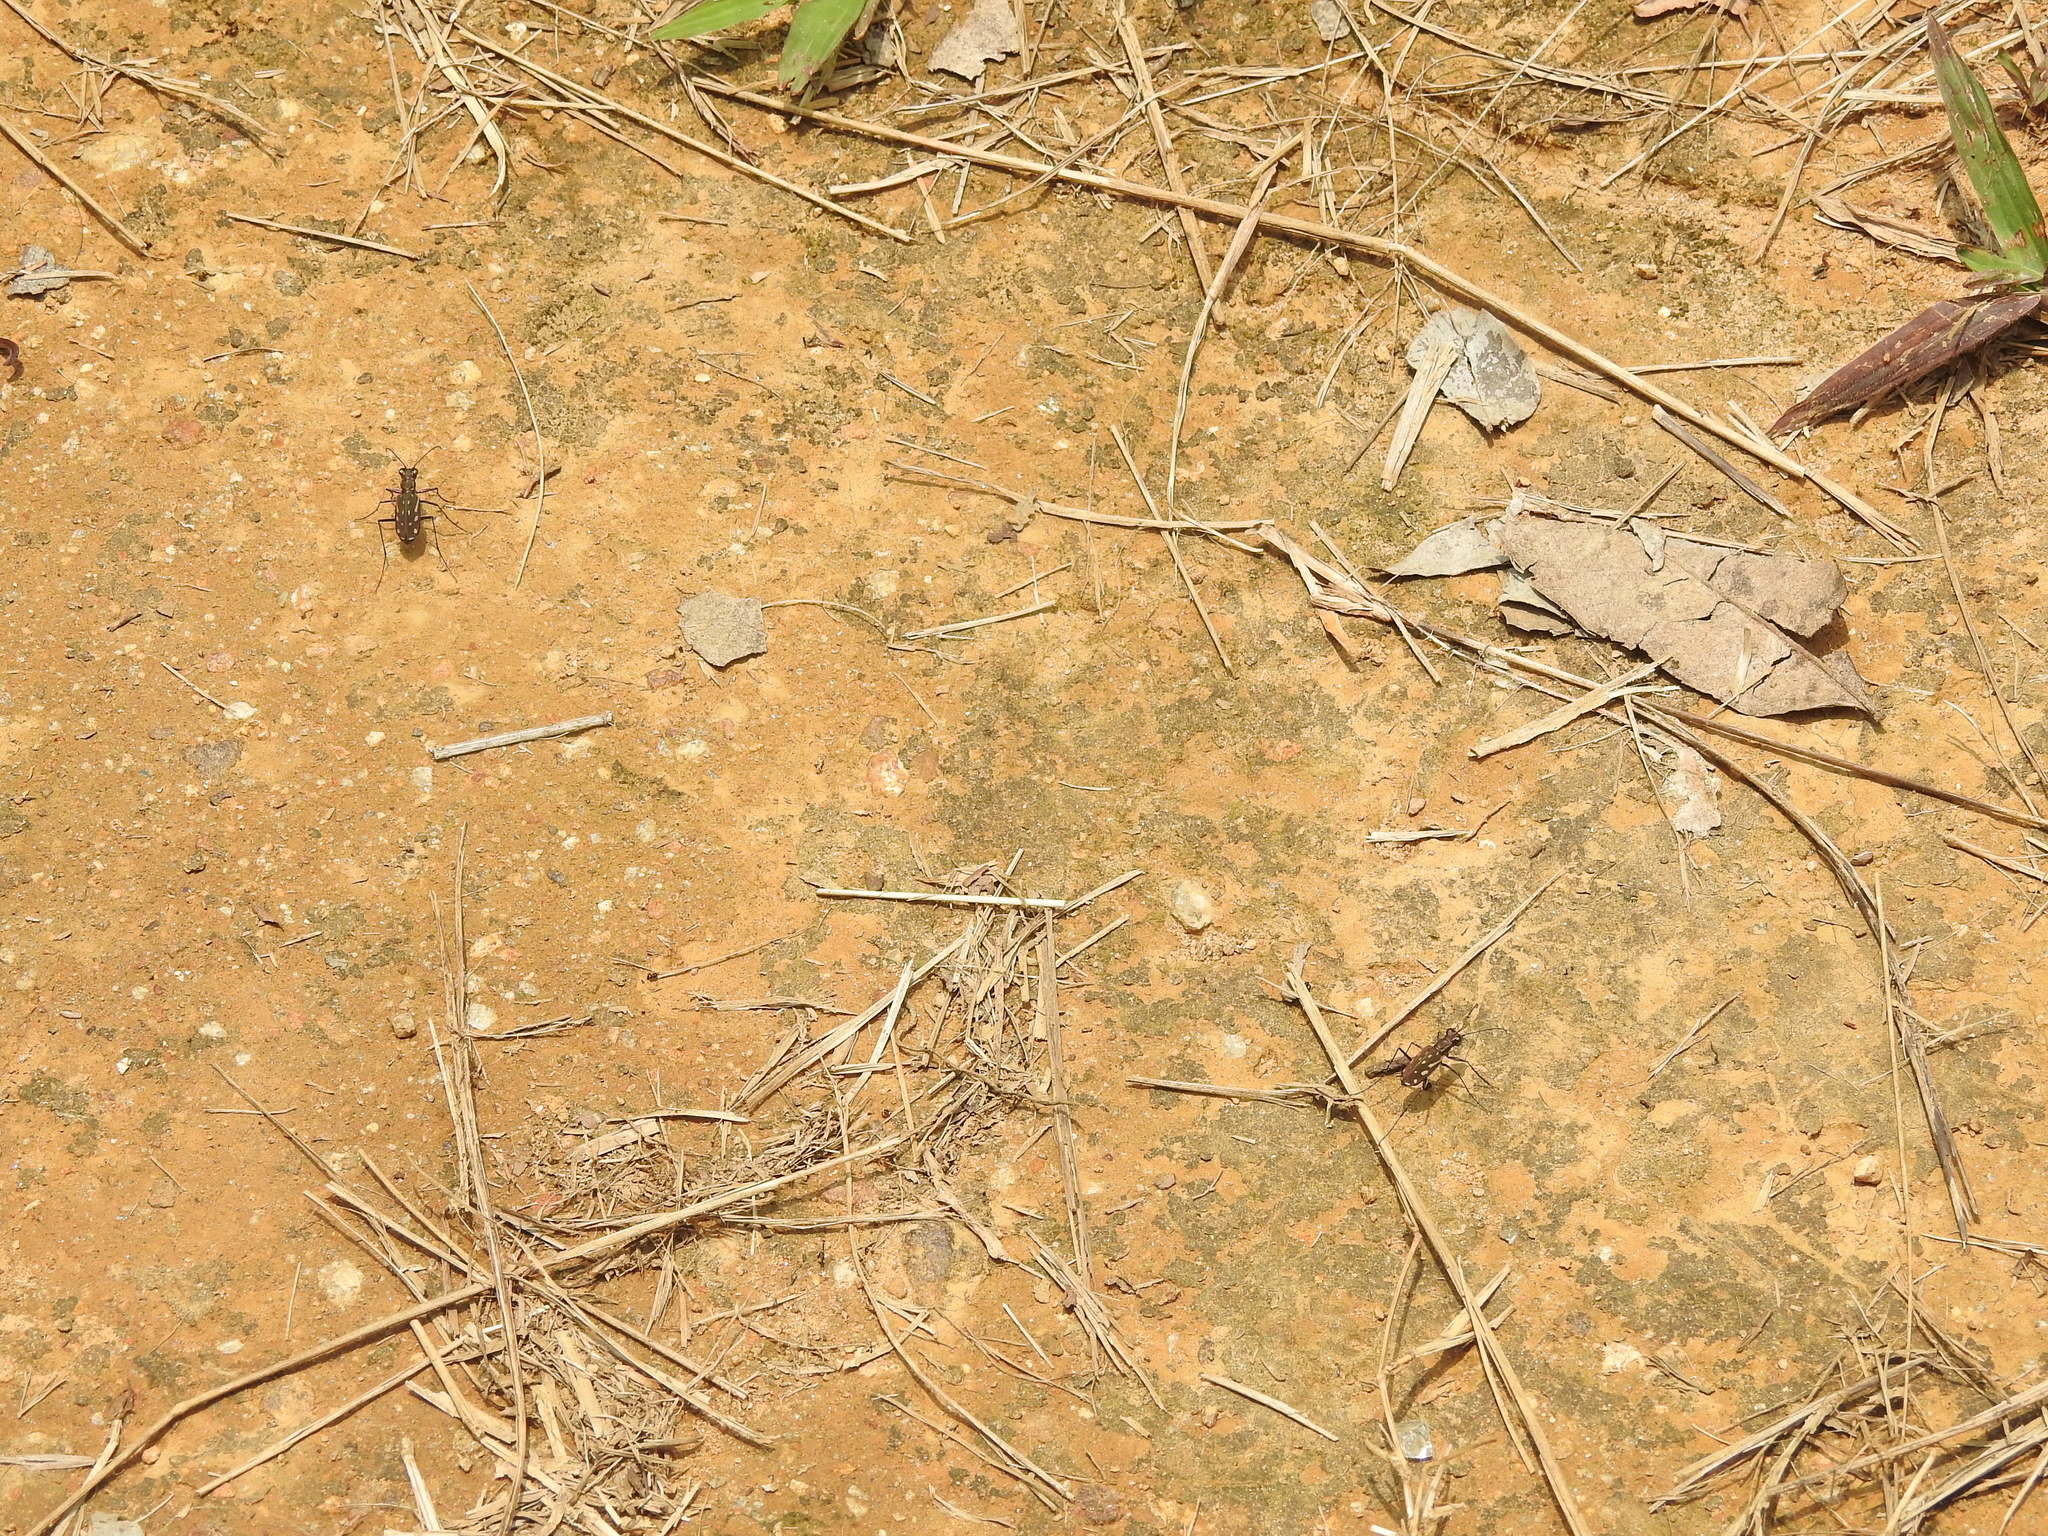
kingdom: Animalia
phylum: Arthropoda
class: Insecta
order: Coleoptera
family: Carabidae
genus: Lophyra
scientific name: Lophyra striolata
